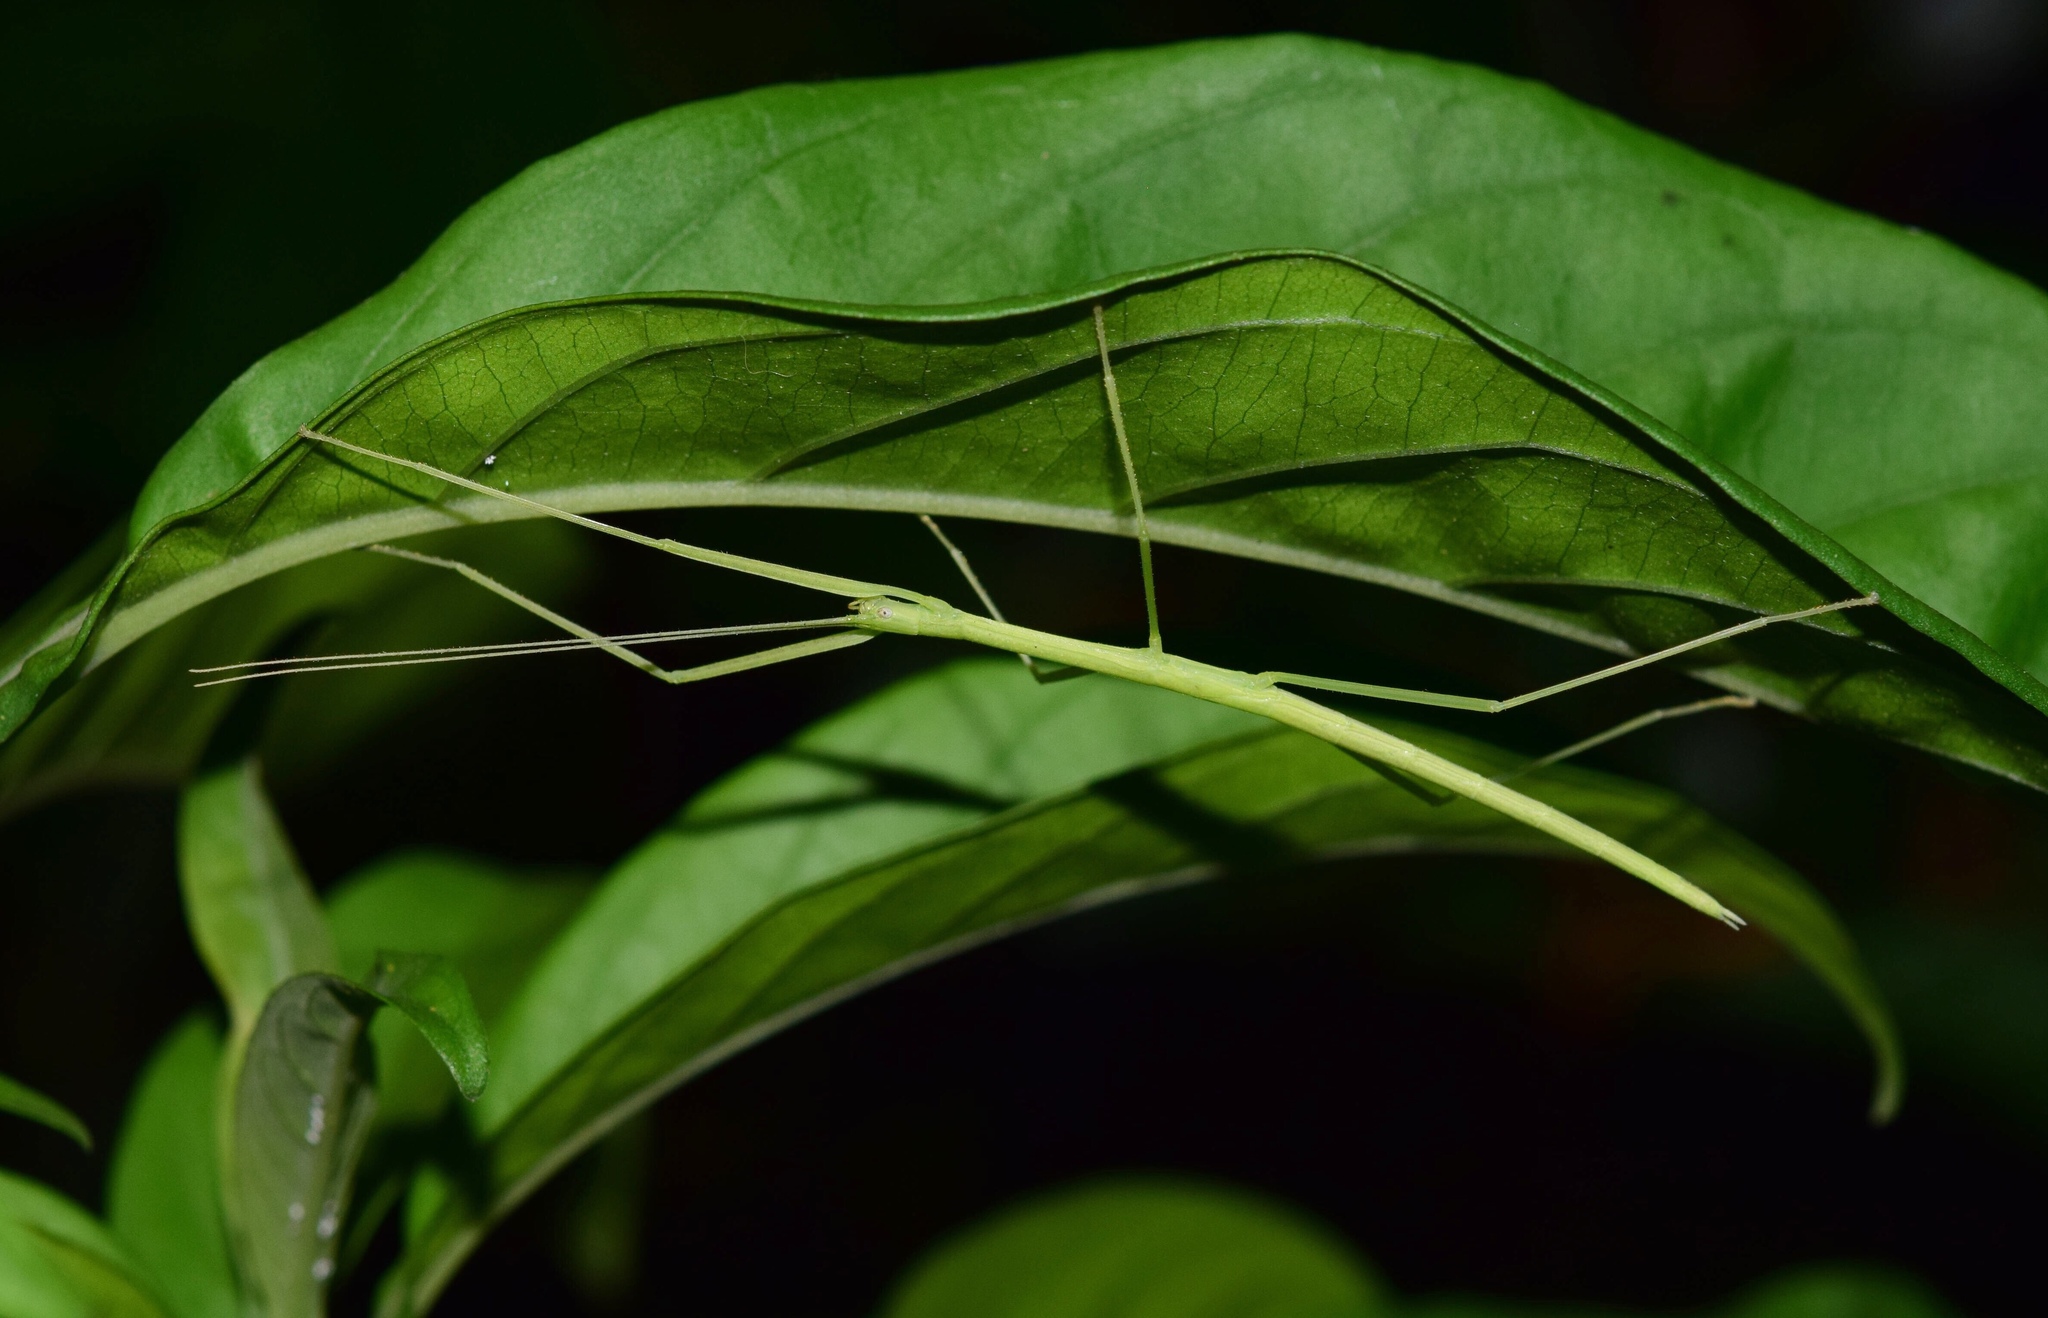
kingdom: Plantae
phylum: Tracheophyta
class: Magnoliopsida
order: Lamiales
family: Acanthaceae
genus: Justicia
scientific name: Justicia adhatodoides
